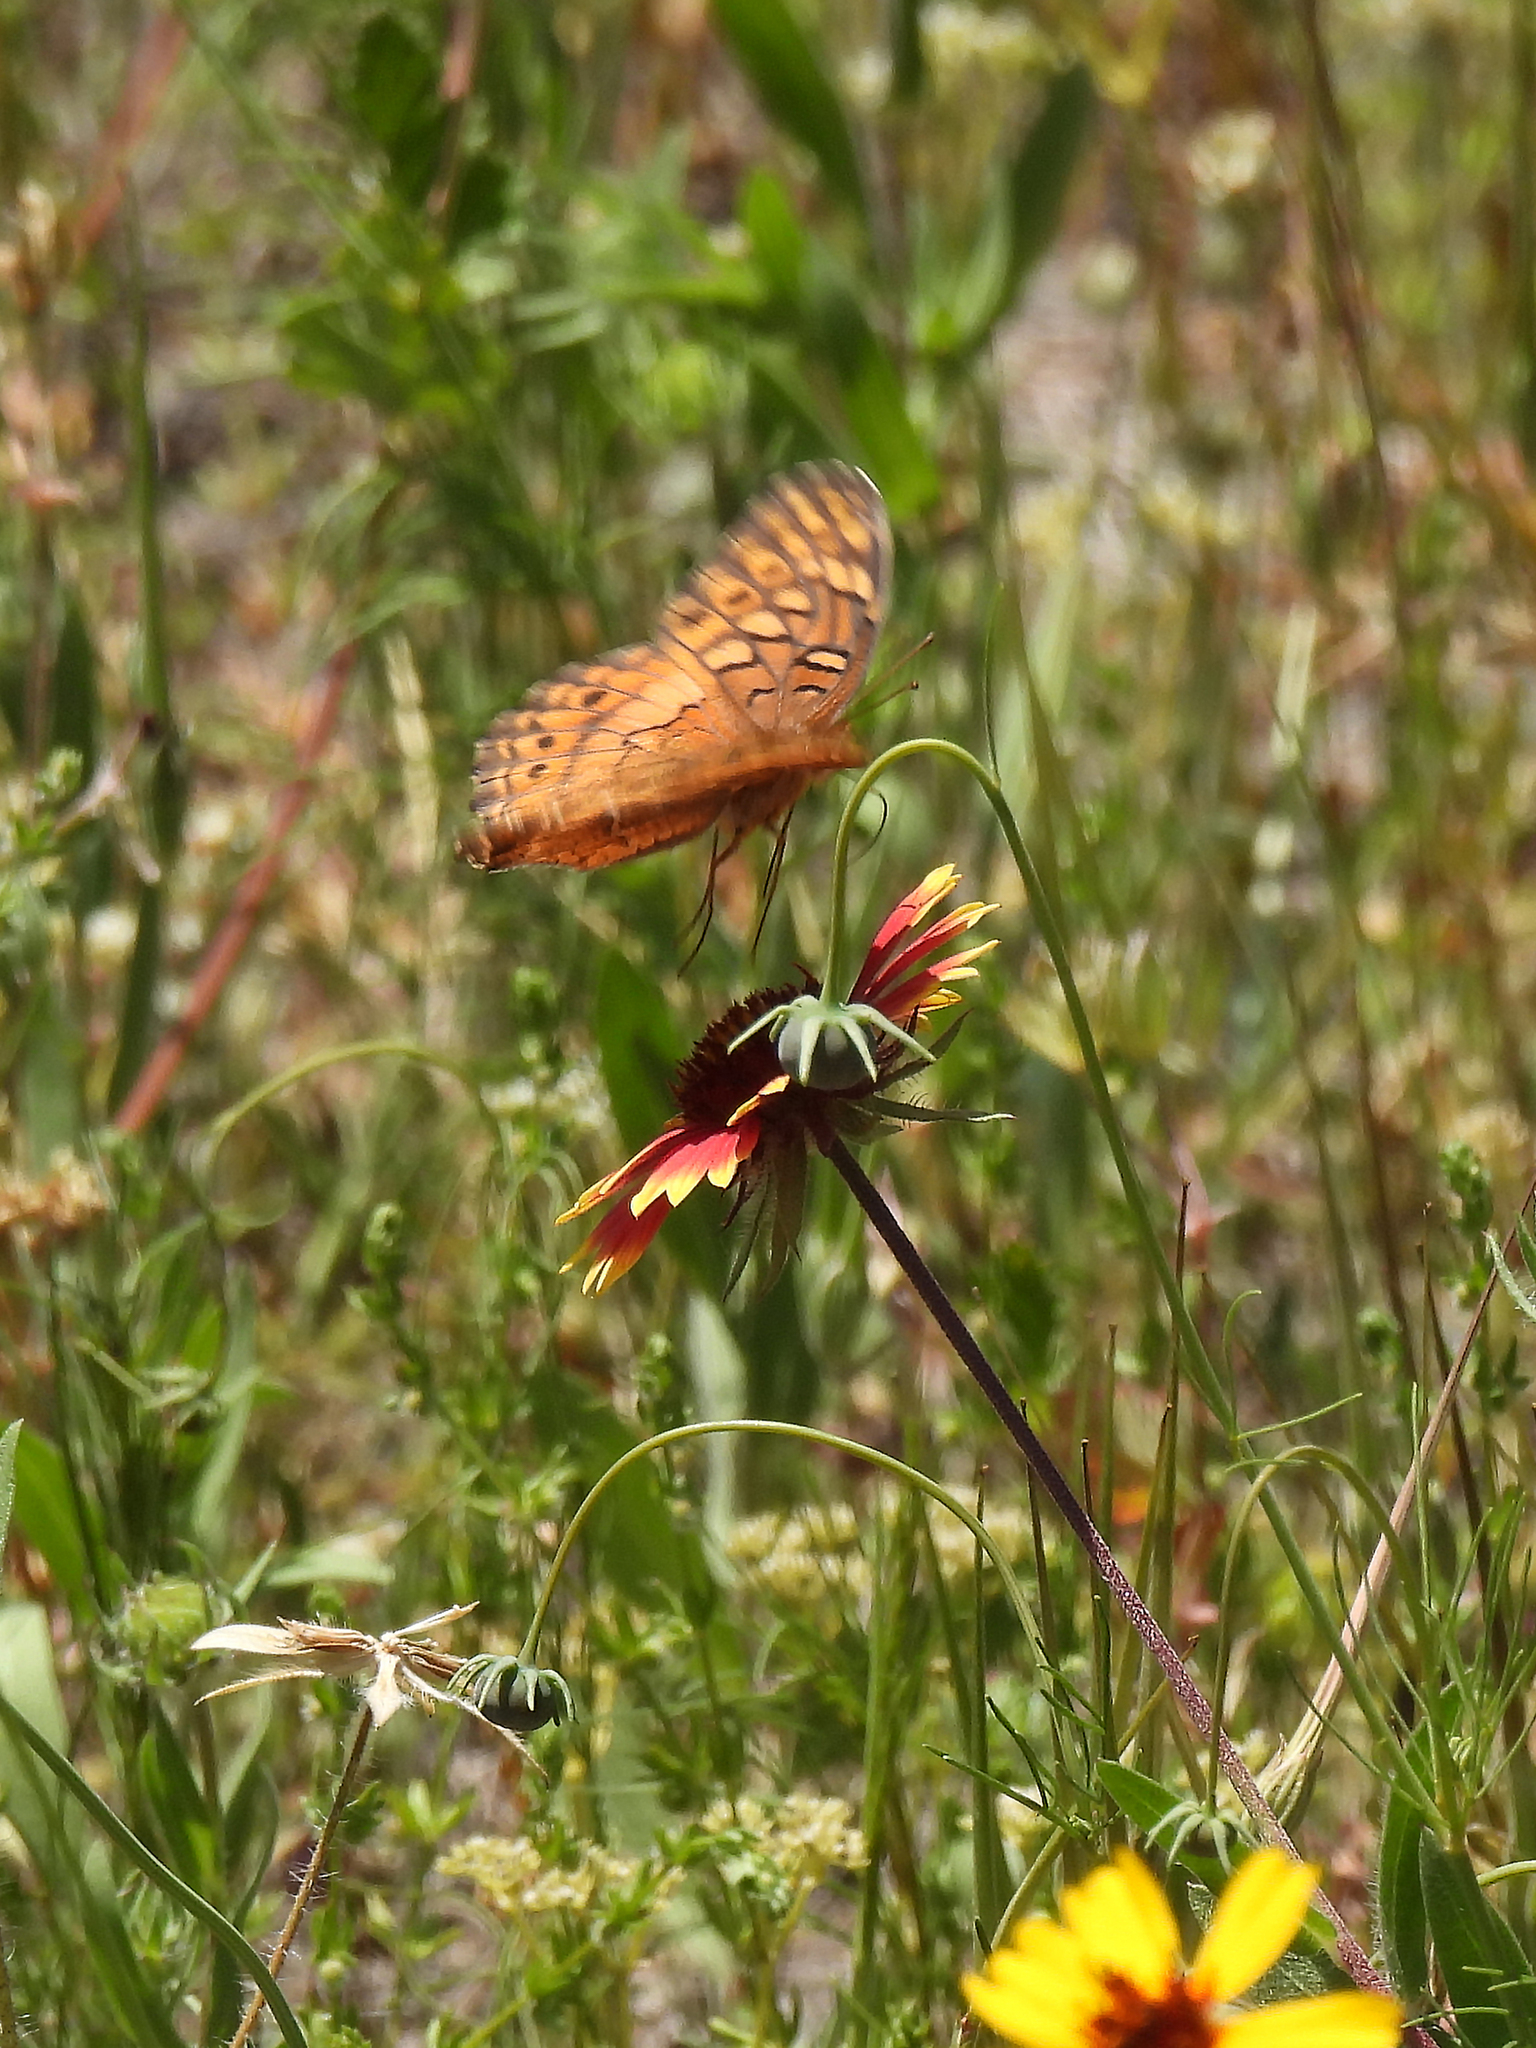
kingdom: Animalia
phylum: Arthropoda
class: Insecta
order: Lepidoptera
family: Nymphalidae
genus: Euptoieta
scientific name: Euptoieta claudia
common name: Variegated fritillary
